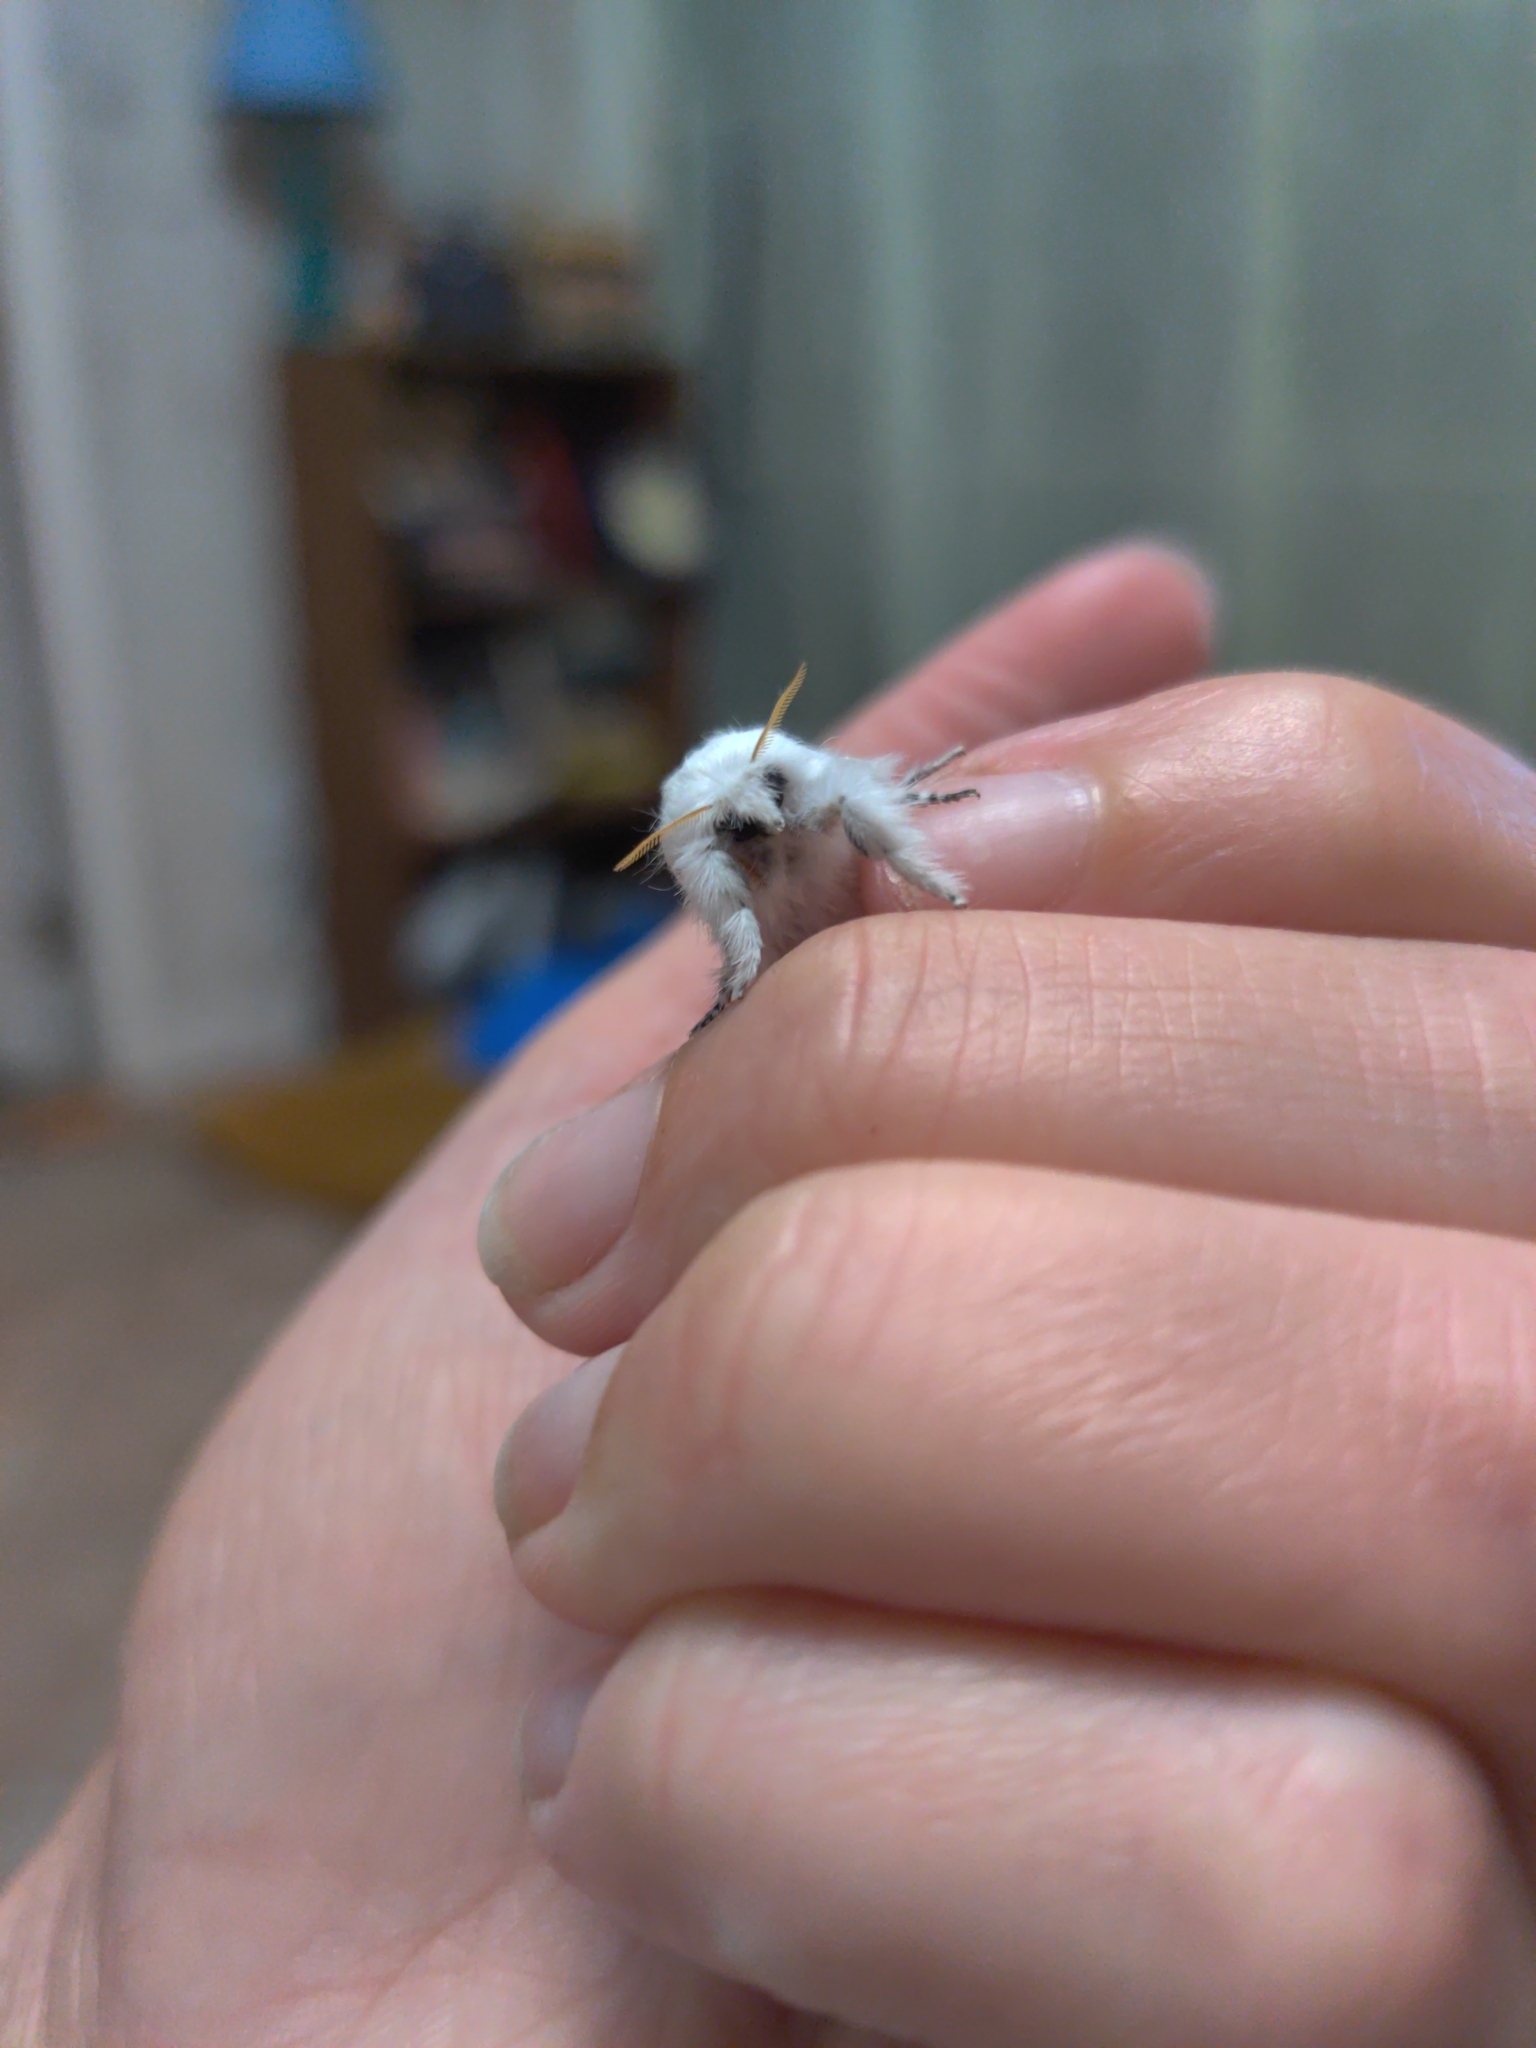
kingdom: Animalia
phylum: Arthropoda
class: Insecta
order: Lepidoptera
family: Lasiocampidae
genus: Artace
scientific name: Artace cribrarius
